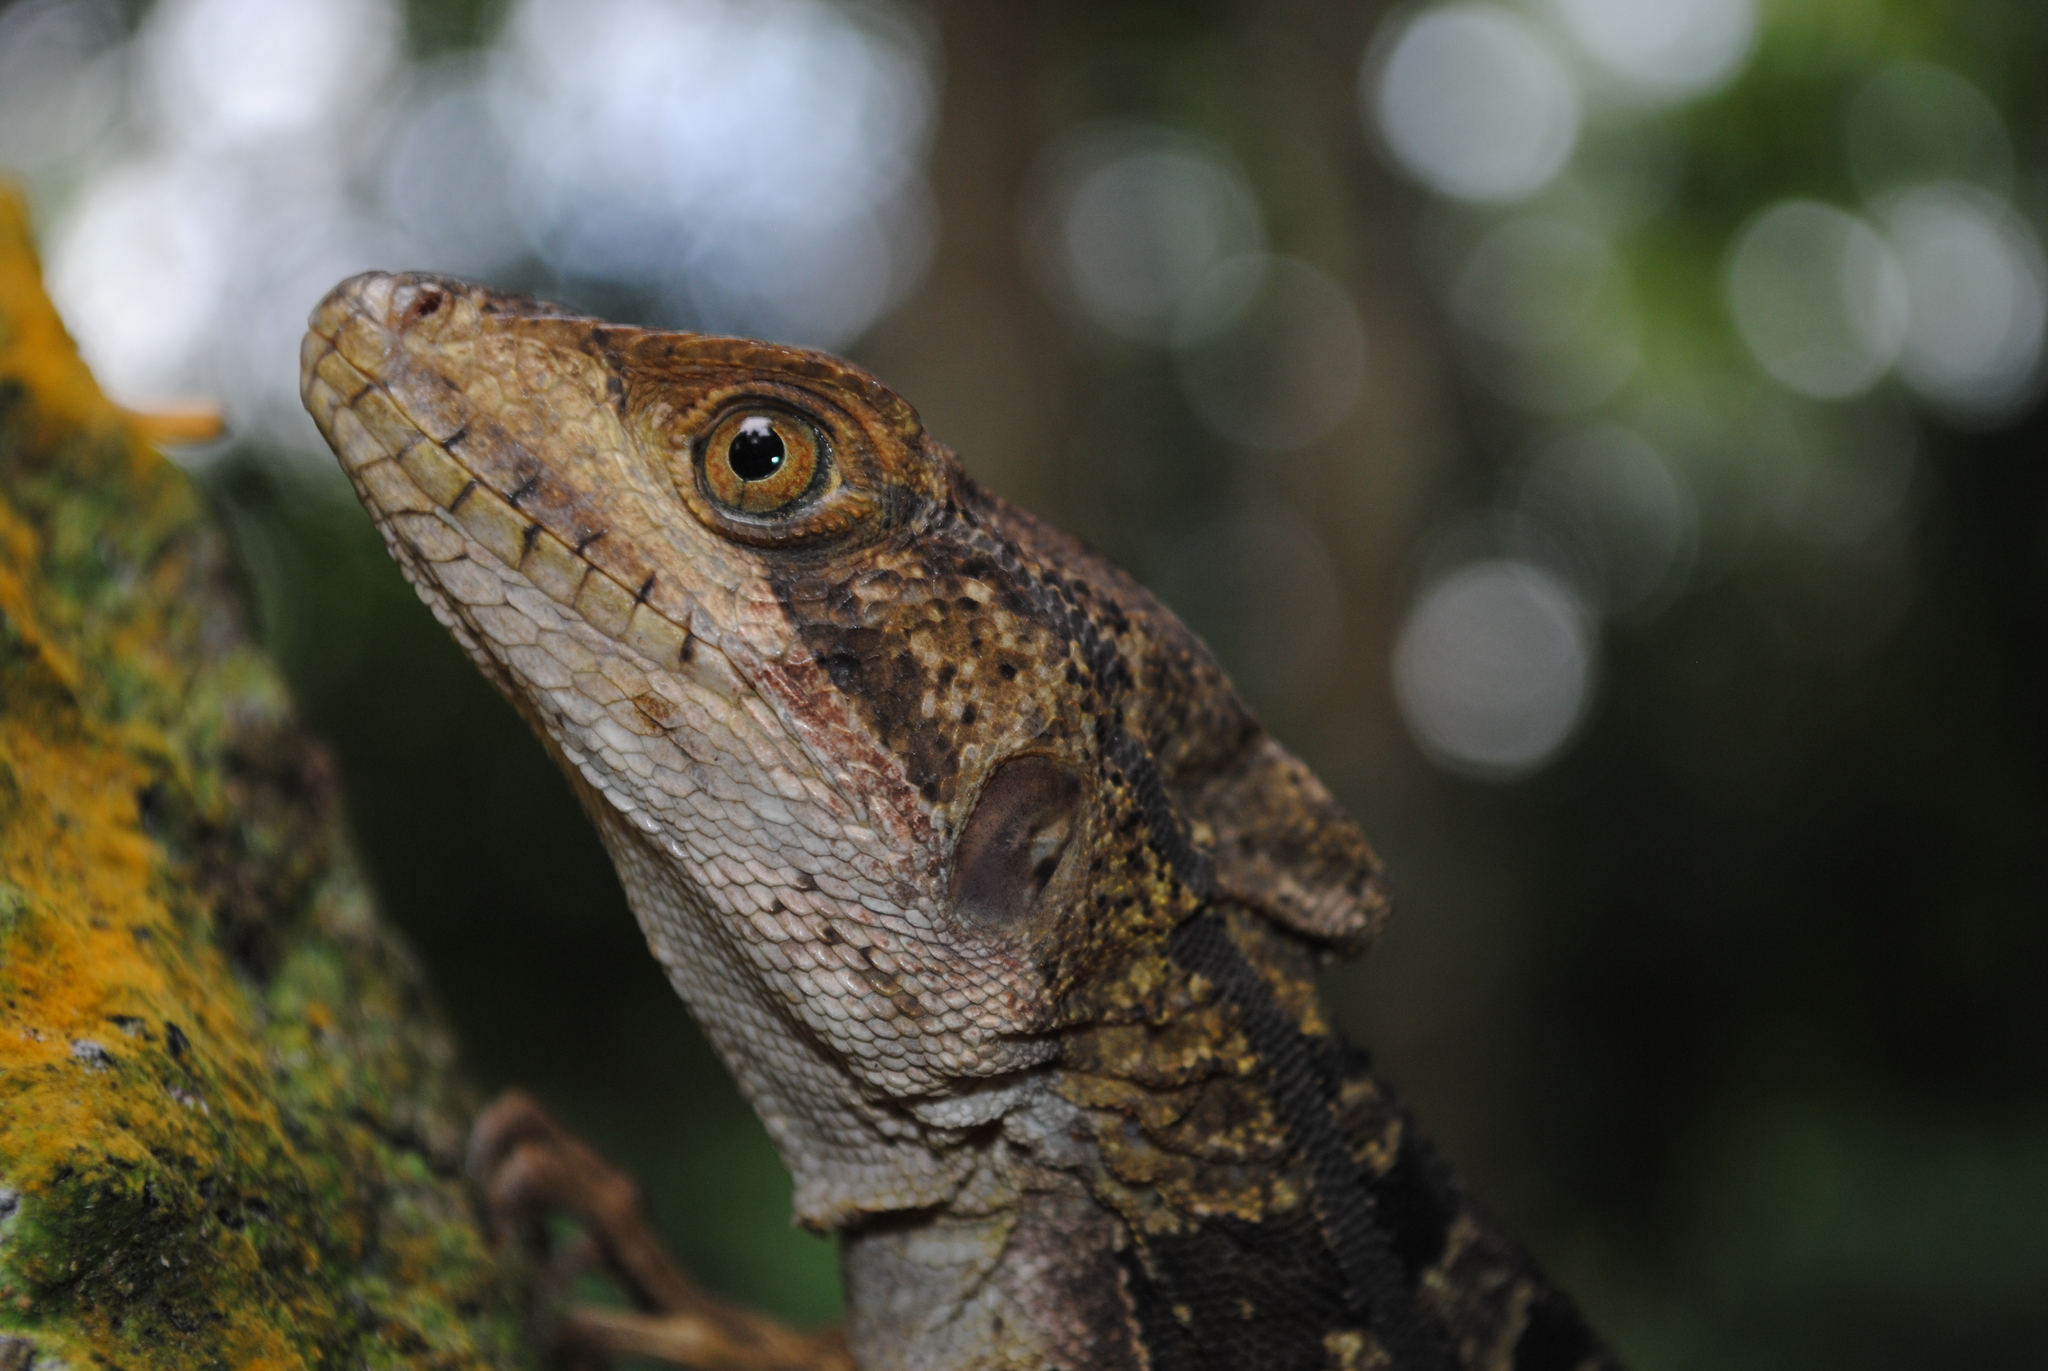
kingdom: Animalia
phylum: Chordata
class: Squamata
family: Corytophanidae
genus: Basiliscus
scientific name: Basiliscus vittatus
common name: Brown basilisk
